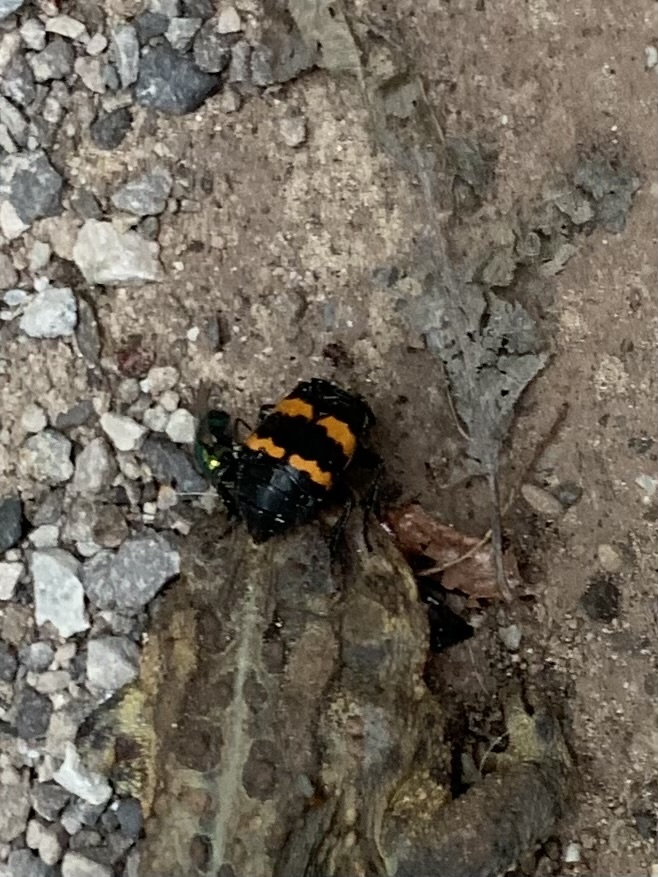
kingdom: Animalia
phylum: Arthropoda
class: Insecta
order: Coleoptera
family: Staphylinidae
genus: Nicrophorus
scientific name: Nicrophorus tomentosus
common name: Tomentose burying beetle
